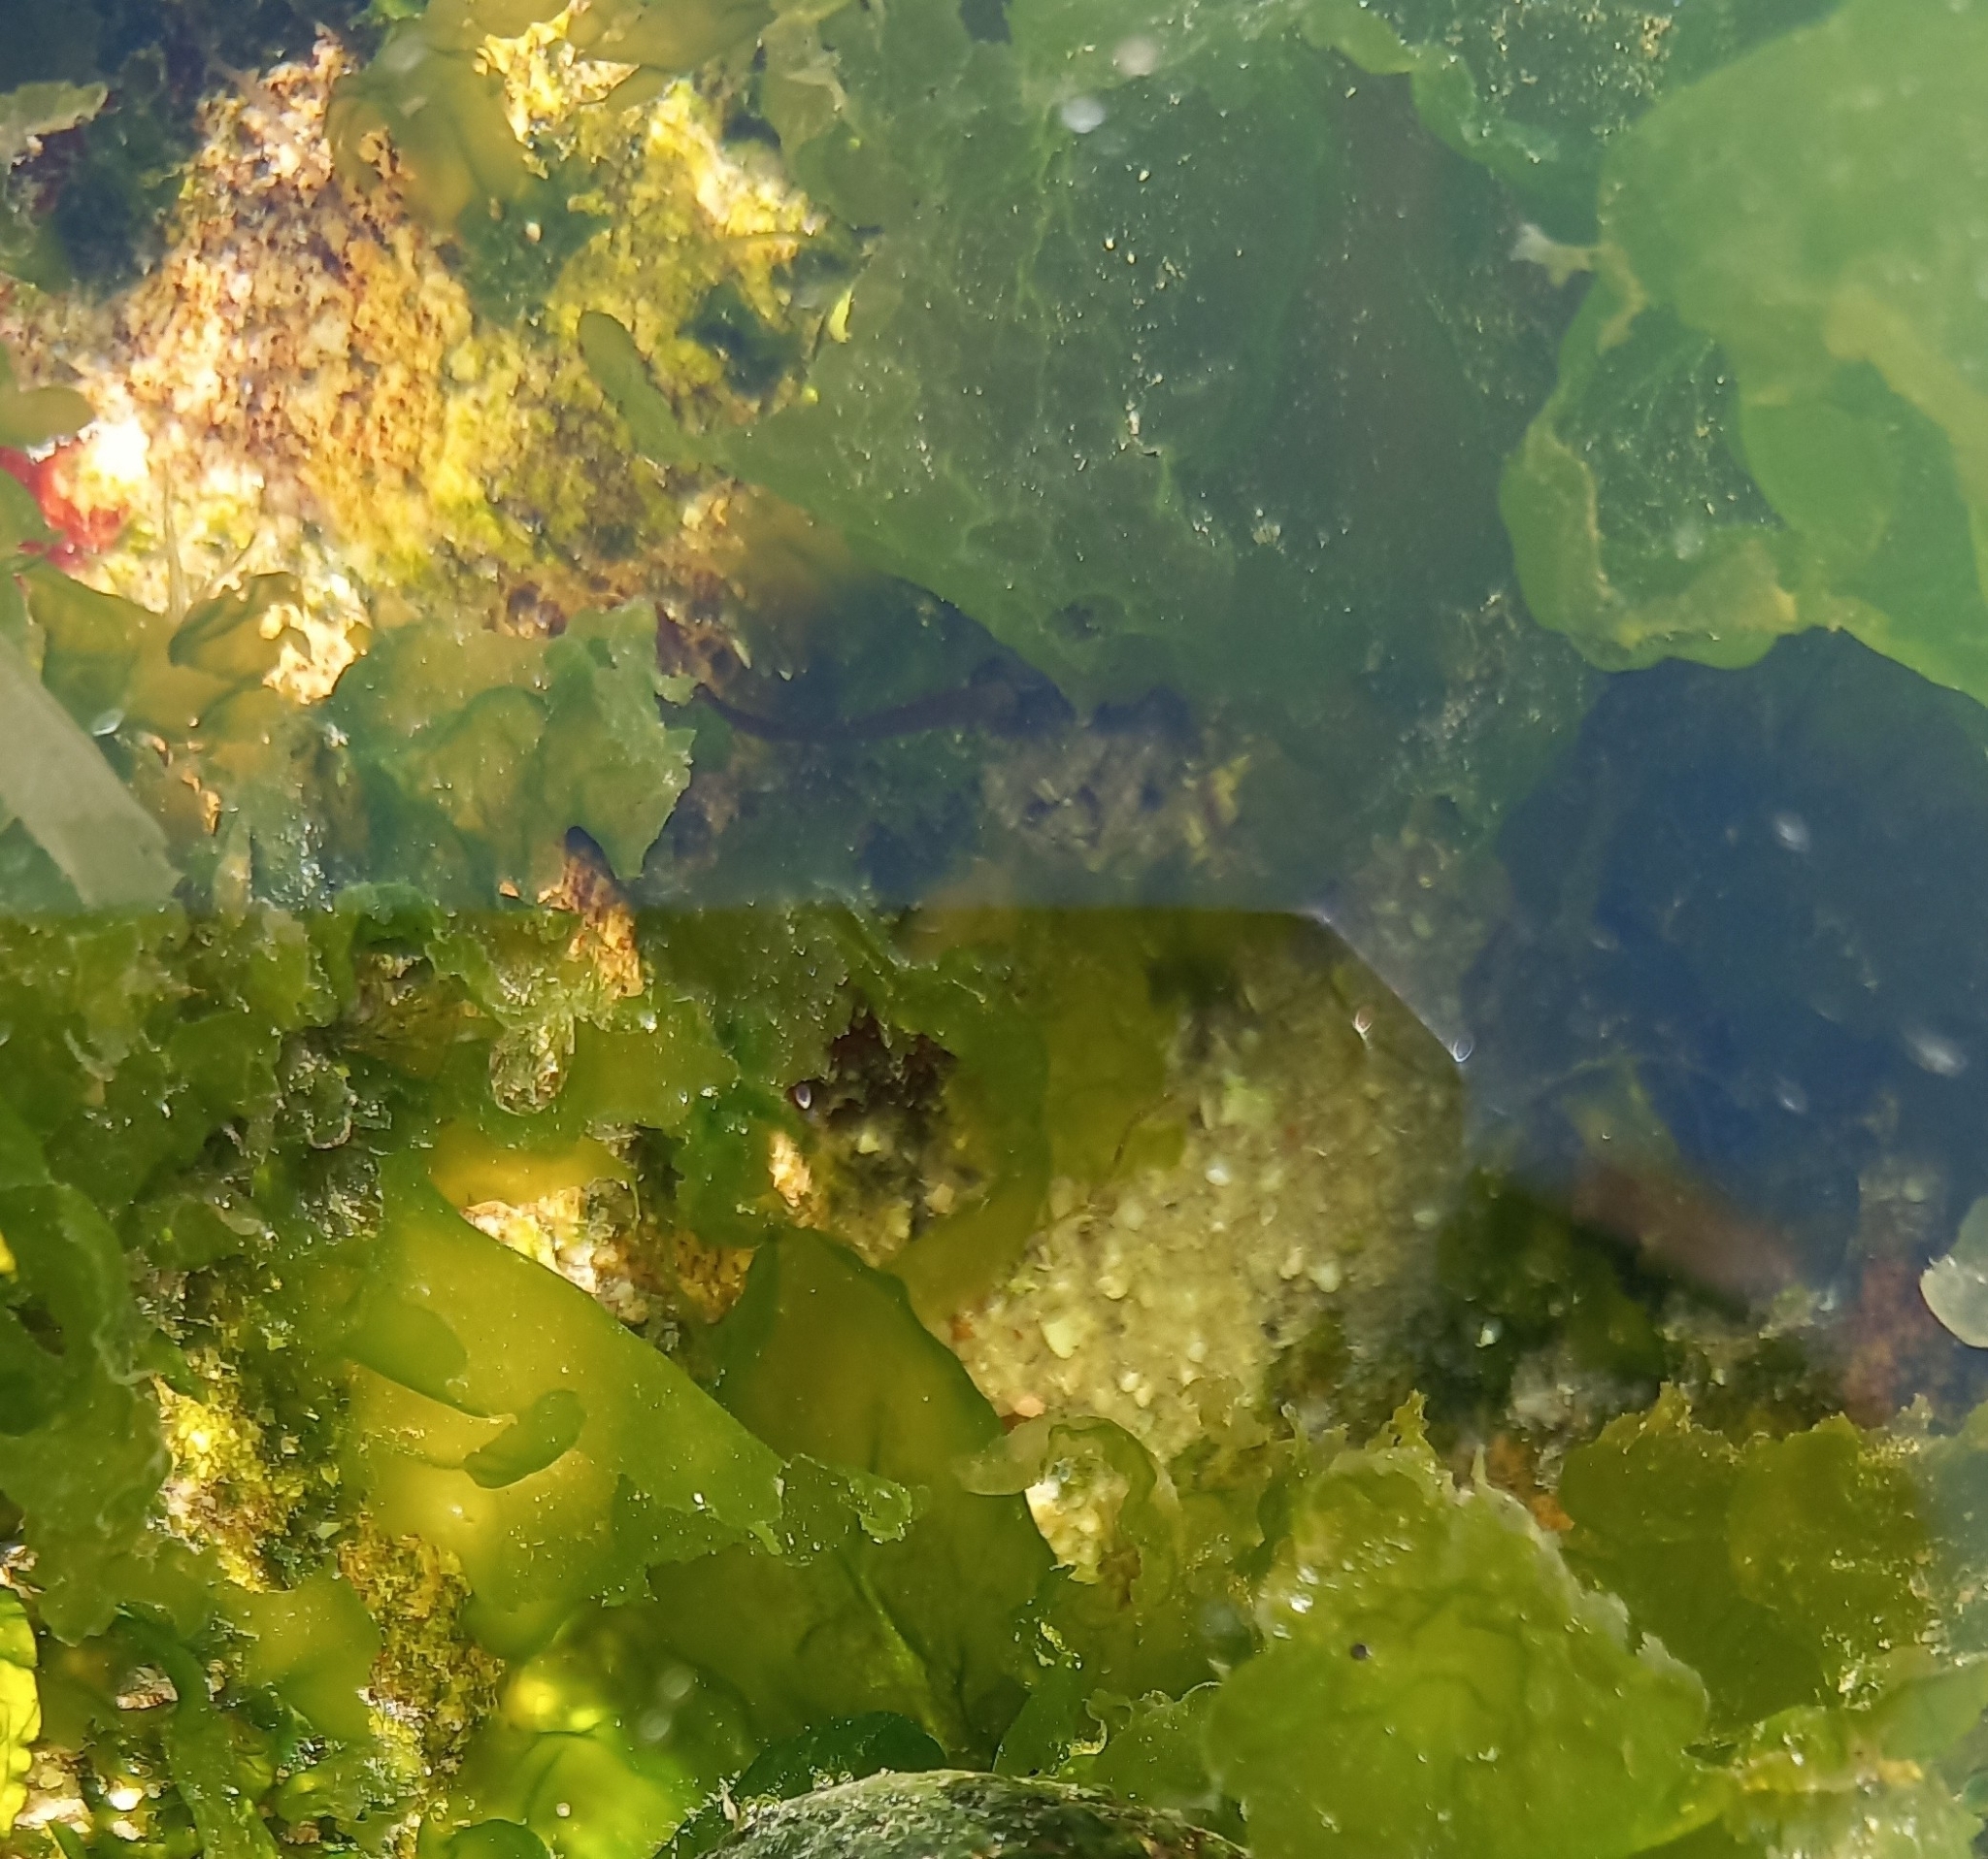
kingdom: Plantae
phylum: Chlorophyta
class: Ulvophyceae
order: Ulvales
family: Ulvaceae
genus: Ulva
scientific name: Ulva lactuca
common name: Sea lettuce
